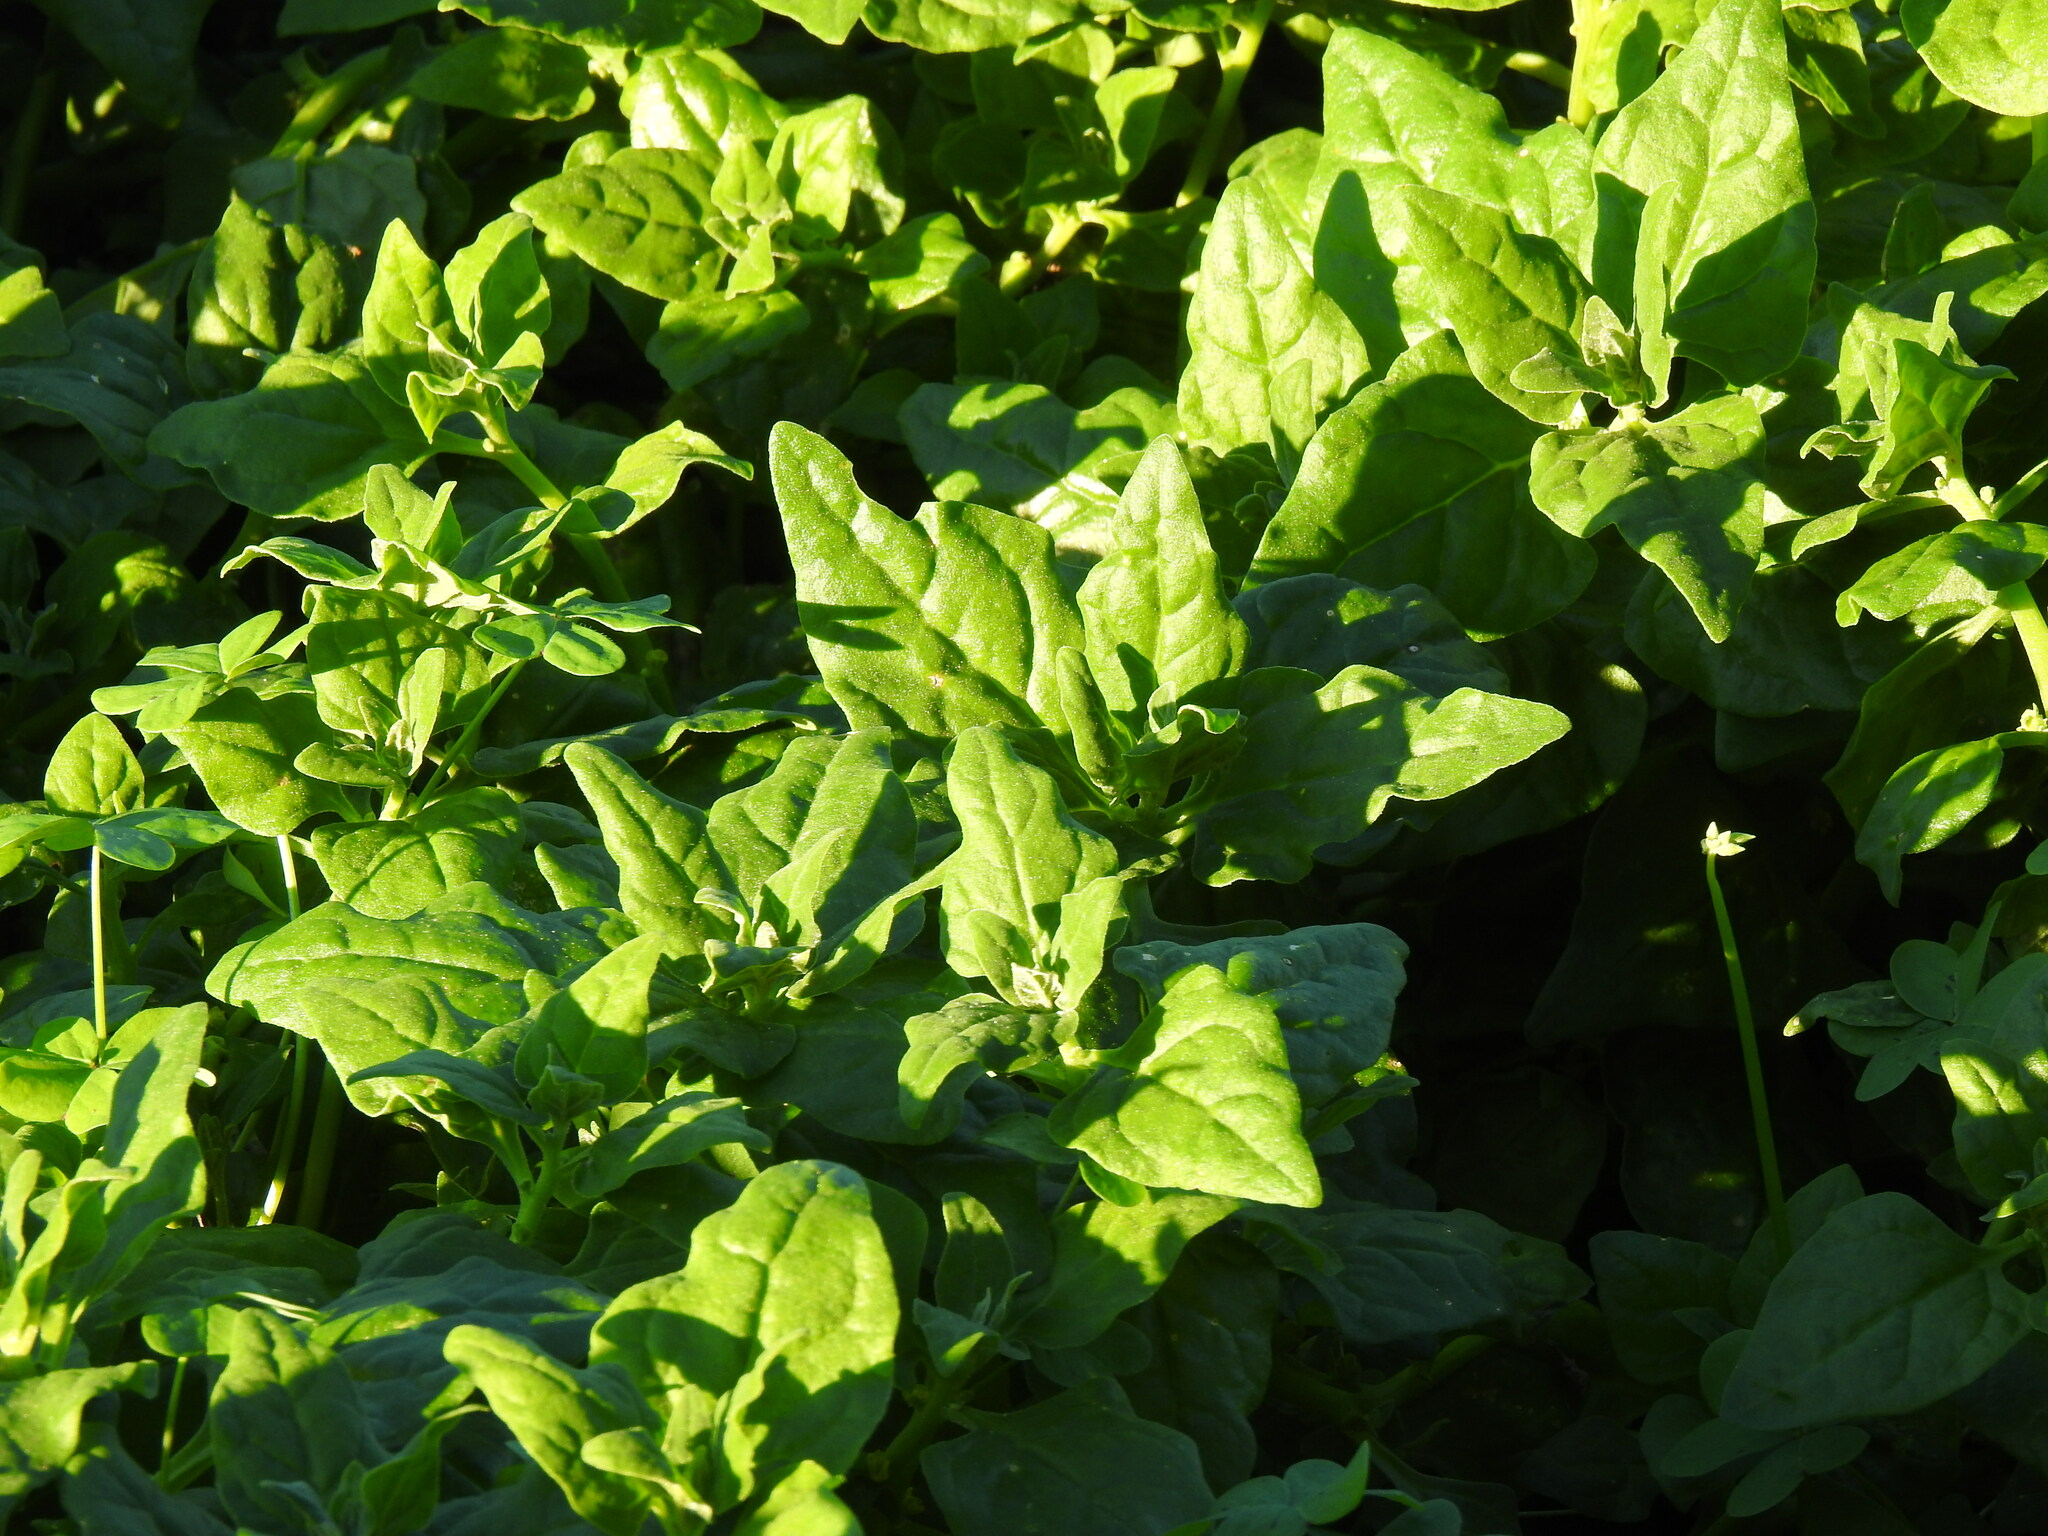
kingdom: Plantae
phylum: Tracheophyta
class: Magnoliopsida
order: Caryophyllales
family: Aizoaceae
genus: Tetragonia
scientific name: Tetragonia tetragonoides
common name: New zealand-spinach
